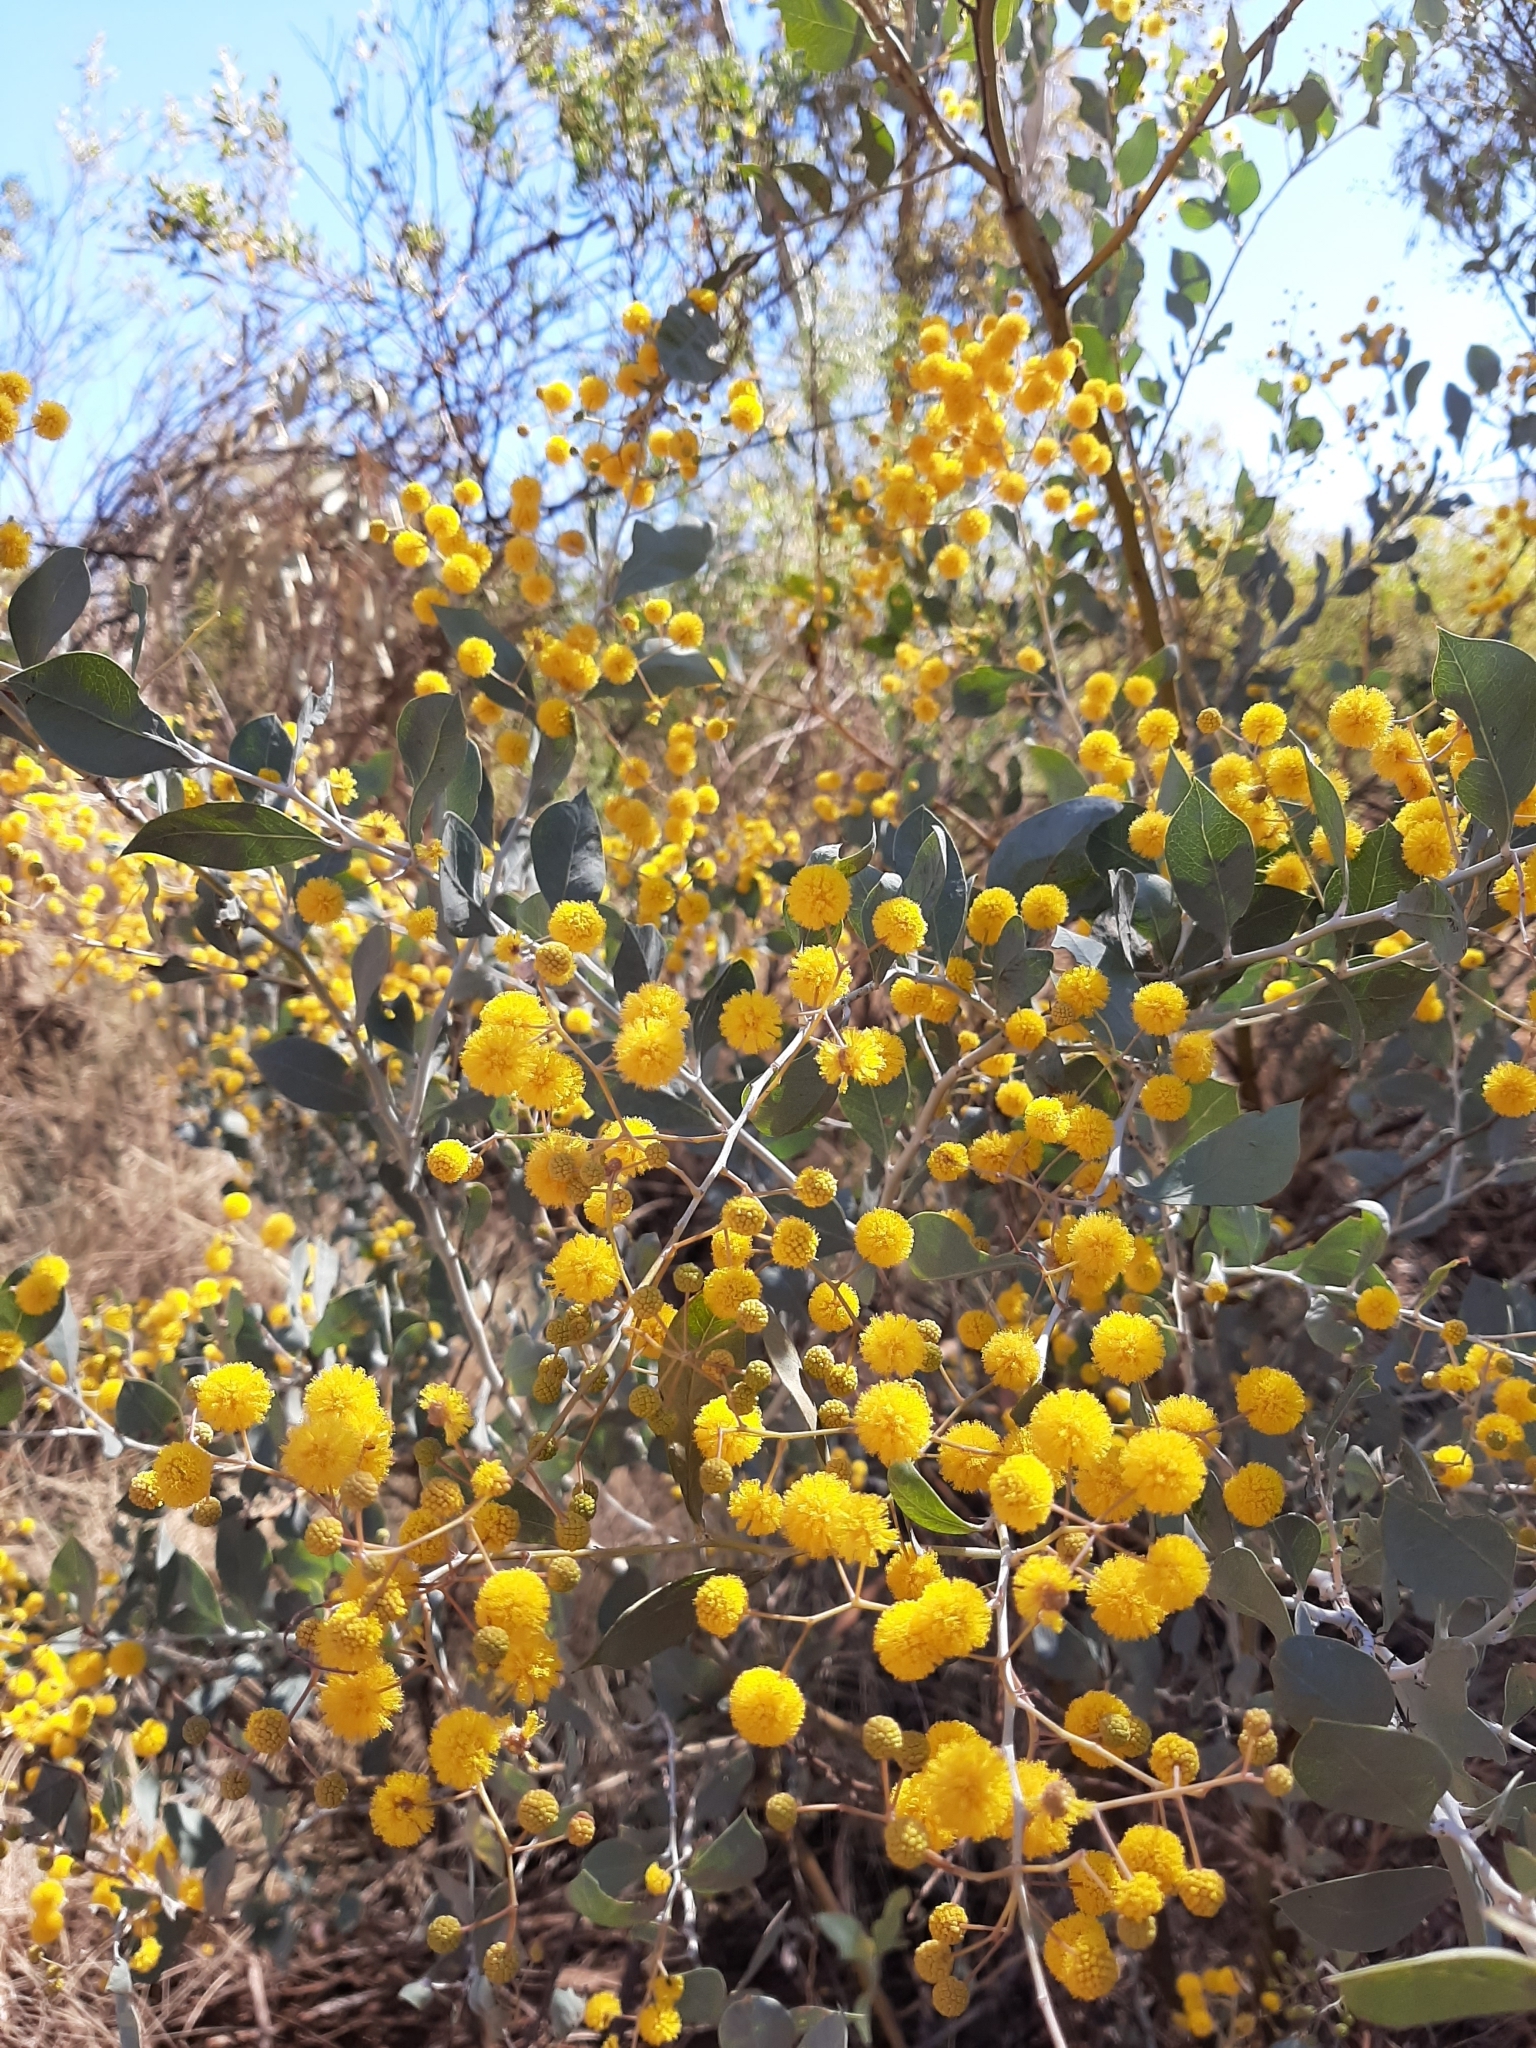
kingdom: Plantae
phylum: Tracheophyta
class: Magnoliopsida
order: Fabales
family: Fabaceae
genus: Acacia
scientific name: Acacia pyrifolia
